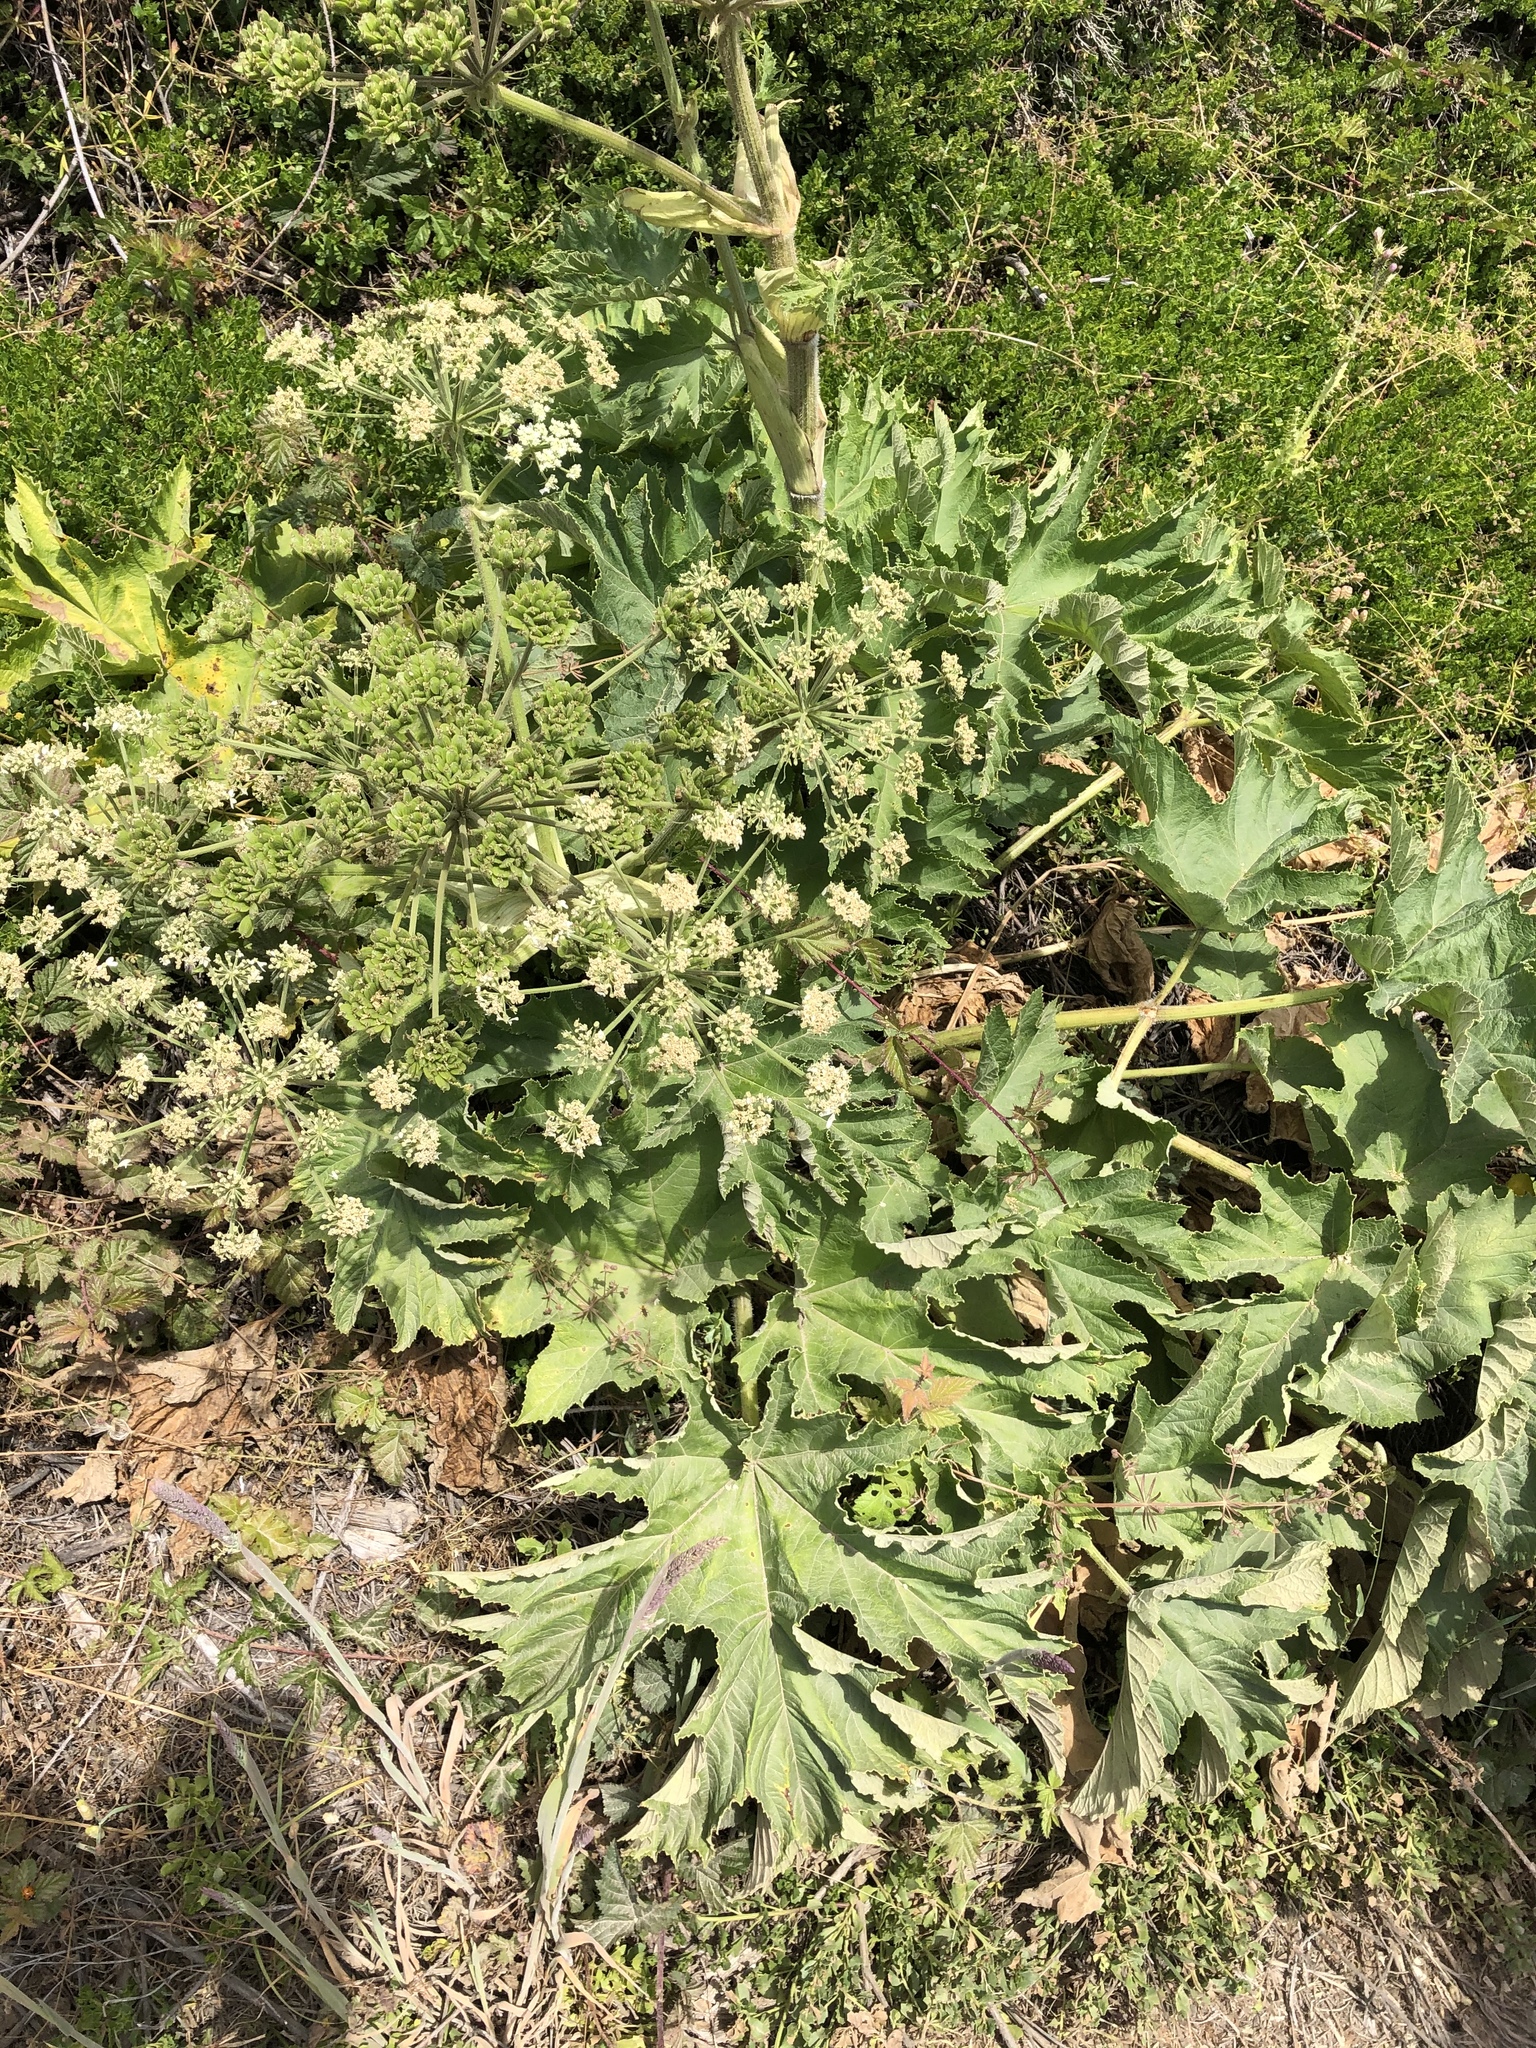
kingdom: Plantae
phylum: Tracheophyta
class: Magnoliopsida
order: Apiales
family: Apiaceae
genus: Heracleum
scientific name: Heracleum maximum
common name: American cow parsnip
